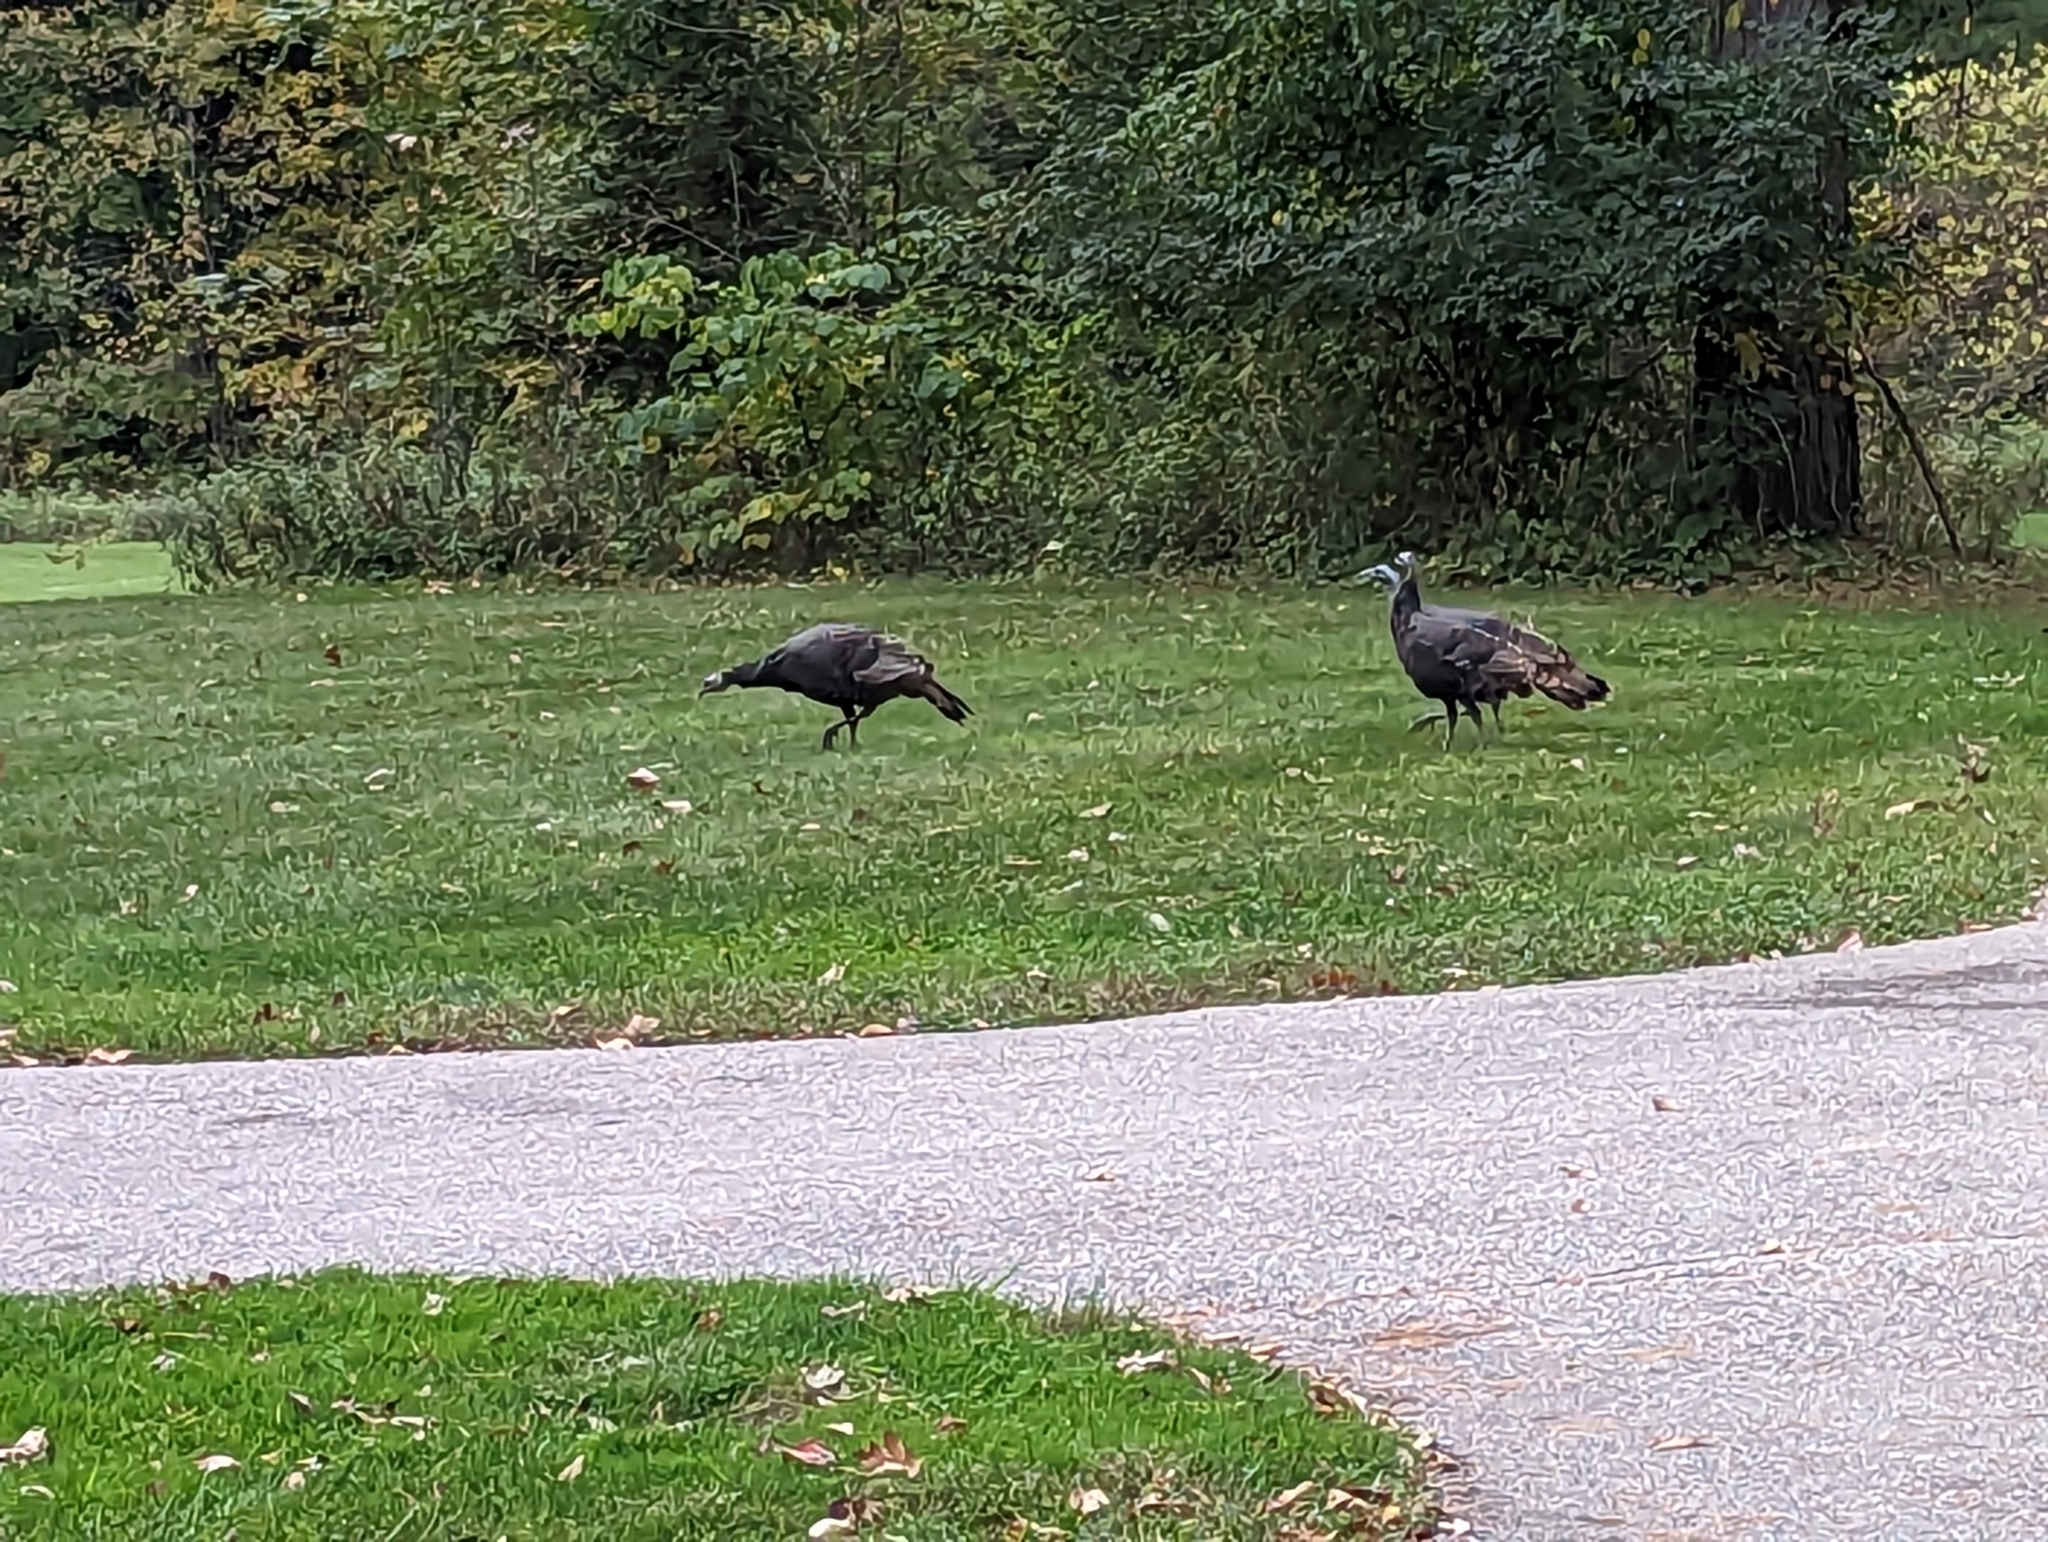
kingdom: Animalia
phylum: Chordata
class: Aves
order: Galliformes
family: Phasianidae
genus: Meleagris
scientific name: Meleagris gallopavo
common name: Wild turkey
